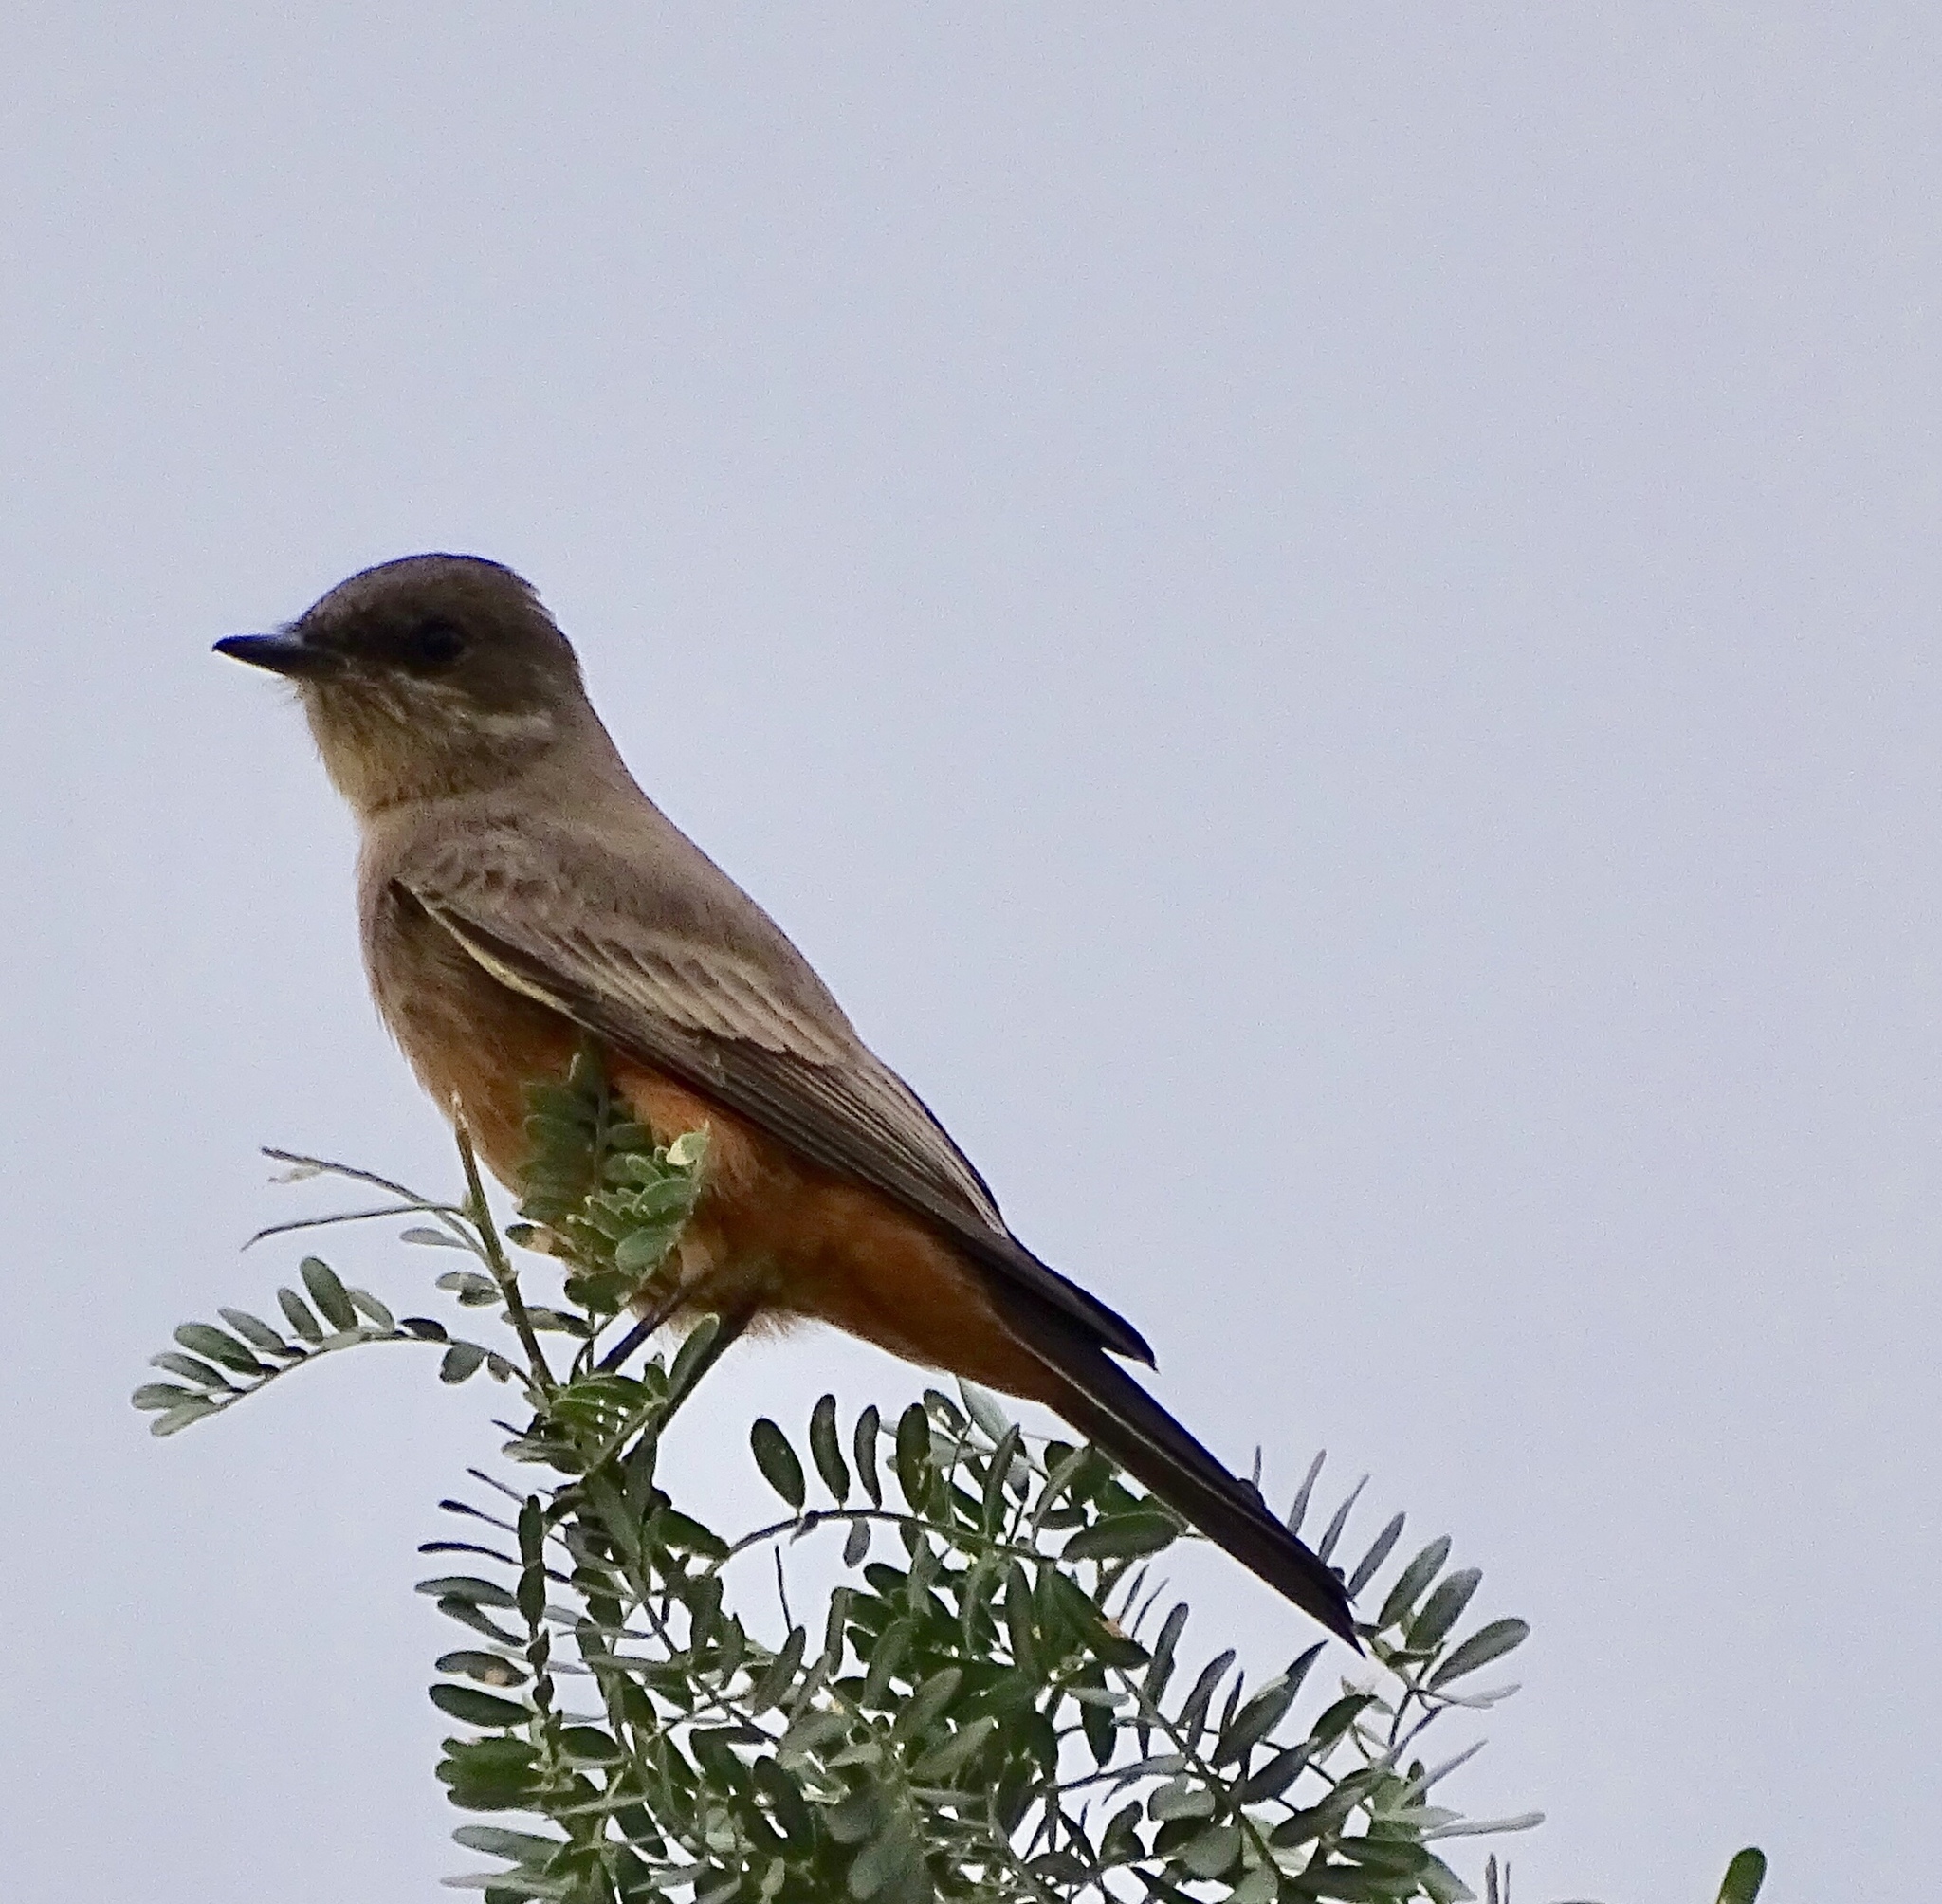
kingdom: Animalia
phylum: Chordata
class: Aves
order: Passeriformes
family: Tyrannidae
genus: Sayornis
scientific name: Sayornis saya
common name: Say's phoebe
